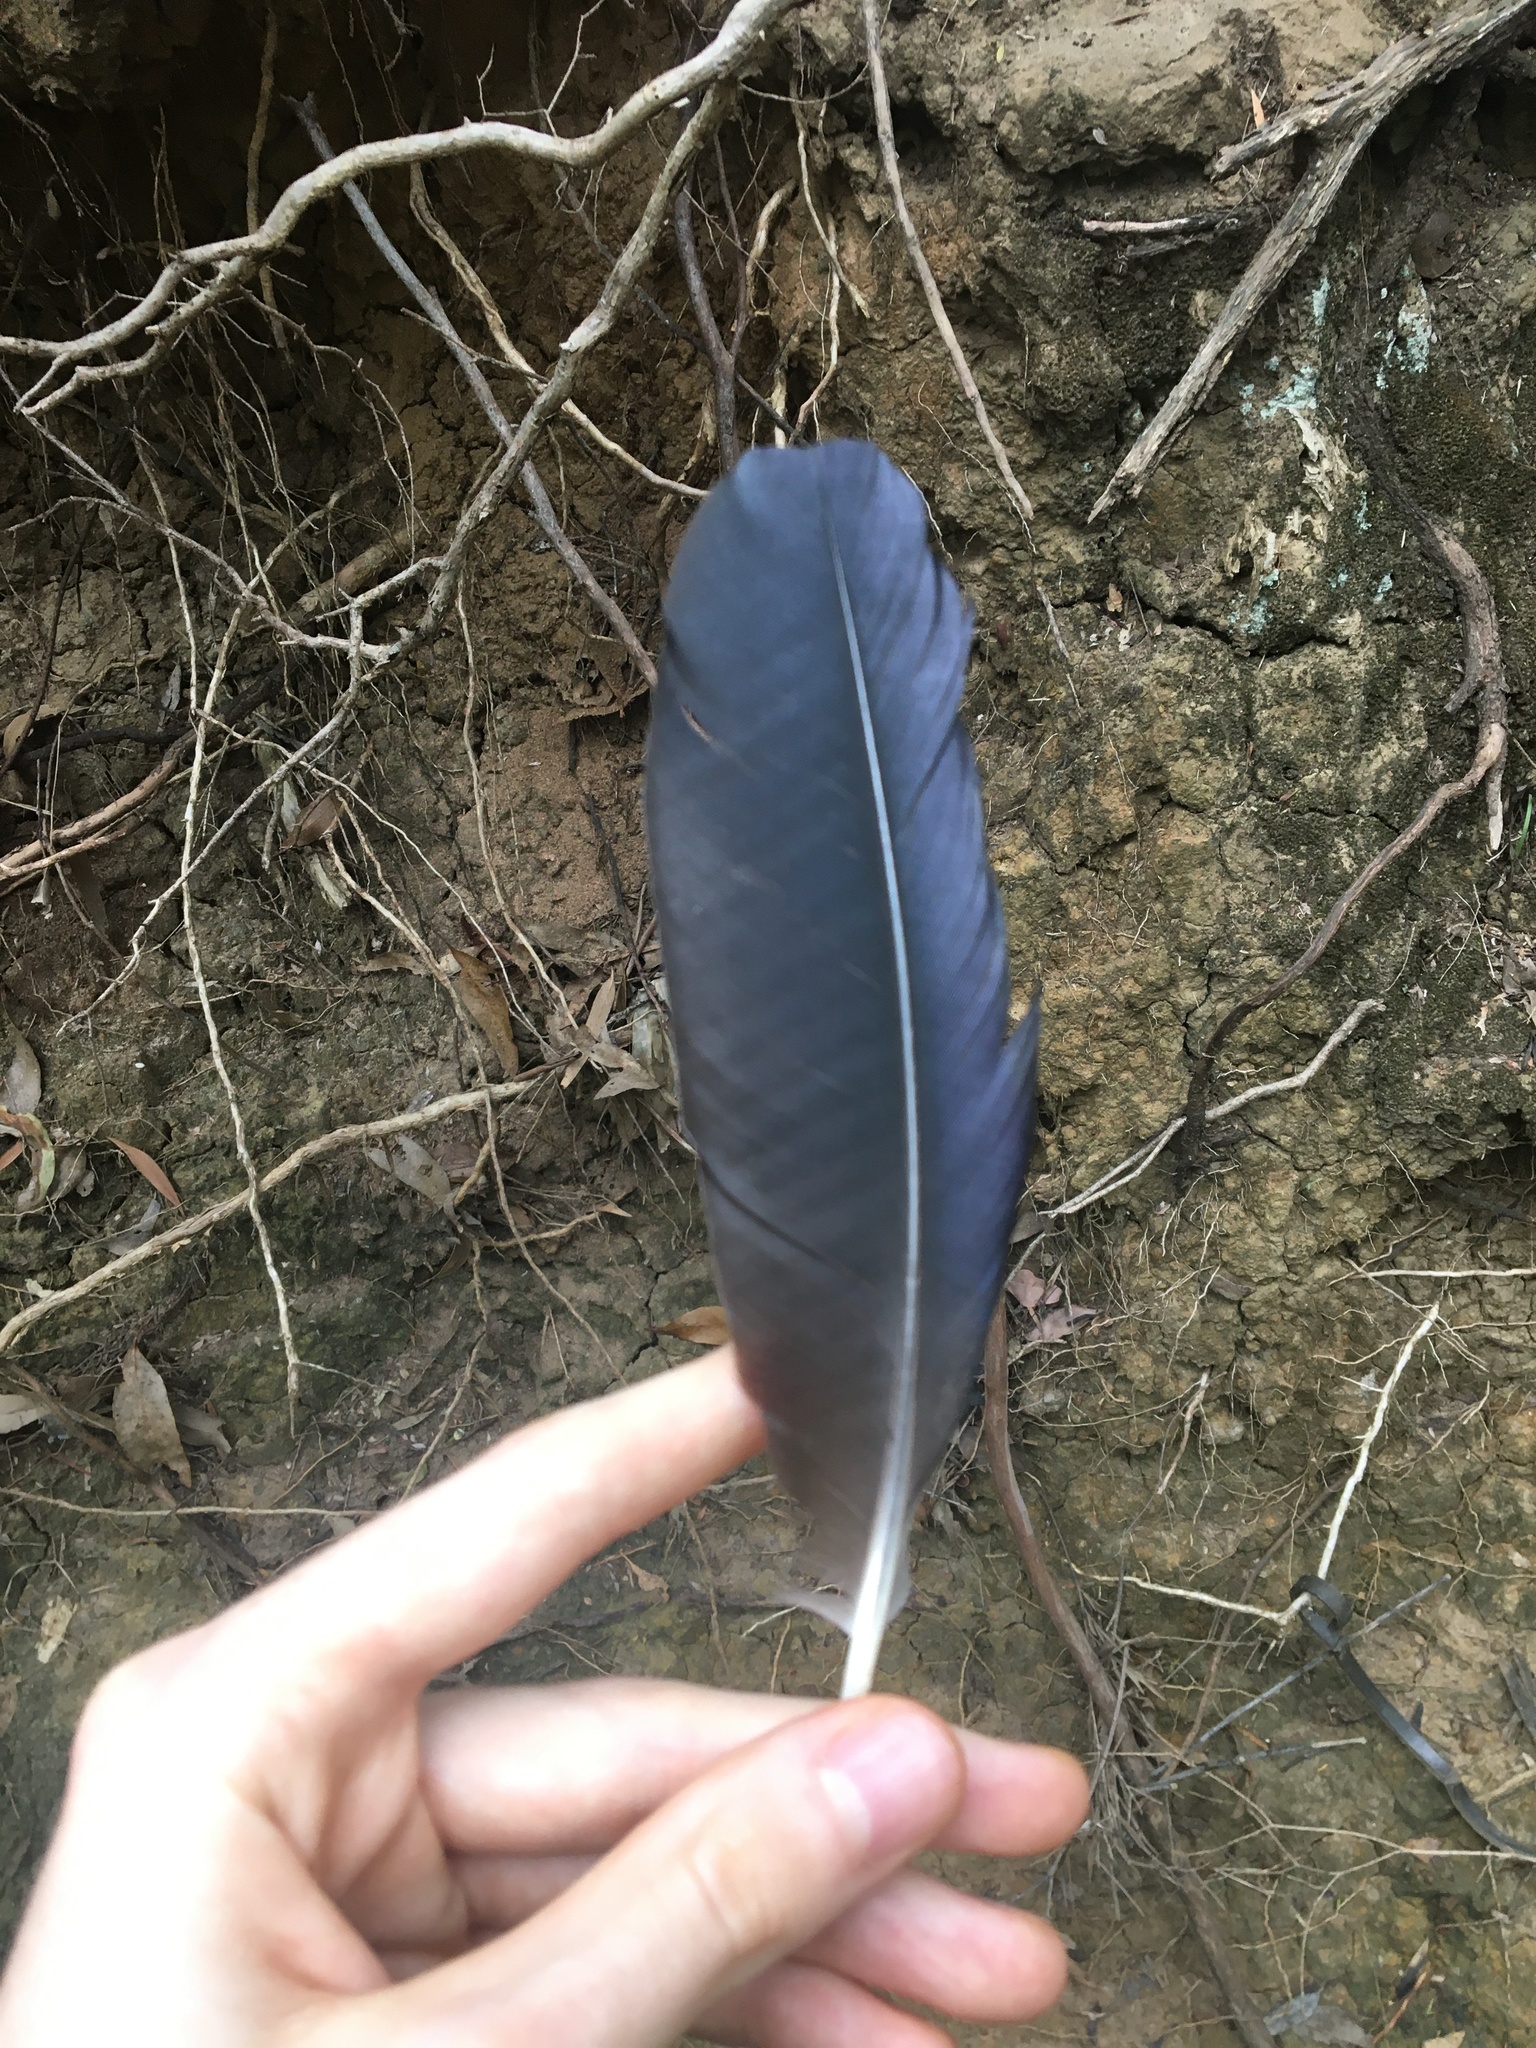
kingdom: Animalia
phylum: Chordata
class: Aves
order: Passeriformes
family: Corvidae
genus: Corvus
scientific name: Corvus coronoides
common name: Australian raven
